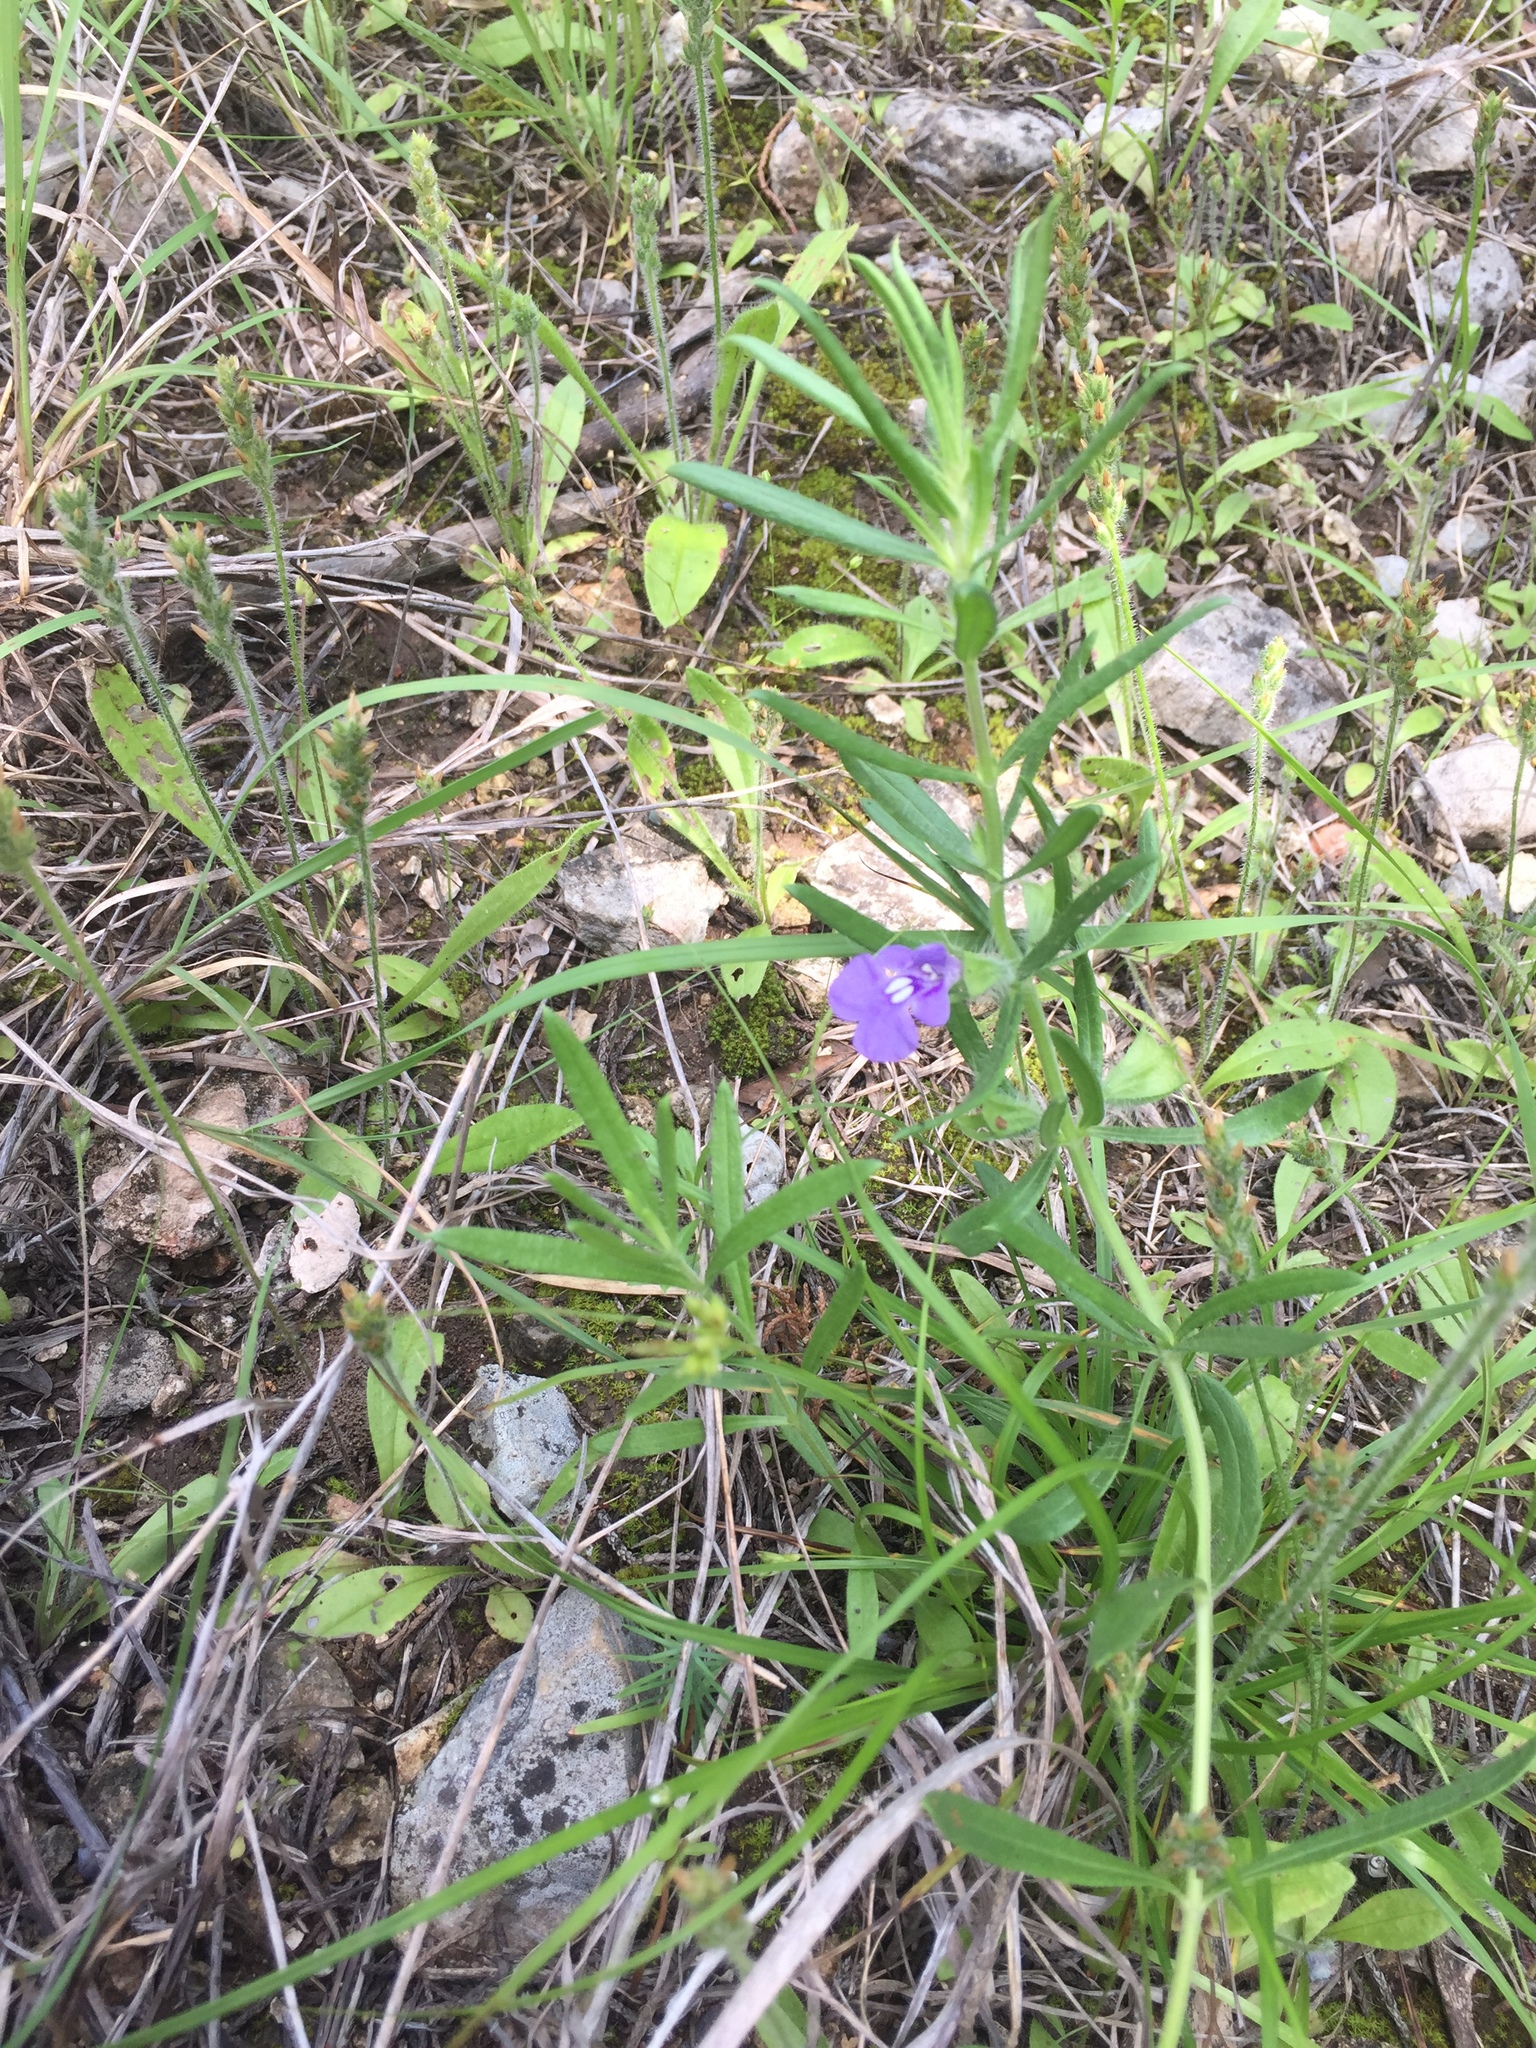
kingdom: Plantae
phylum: Tracheophyta
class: Magnoliopsida
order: Lamiales
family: Lamiaceae
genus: Salvia
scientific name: Salvia texana
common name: Texas sage
